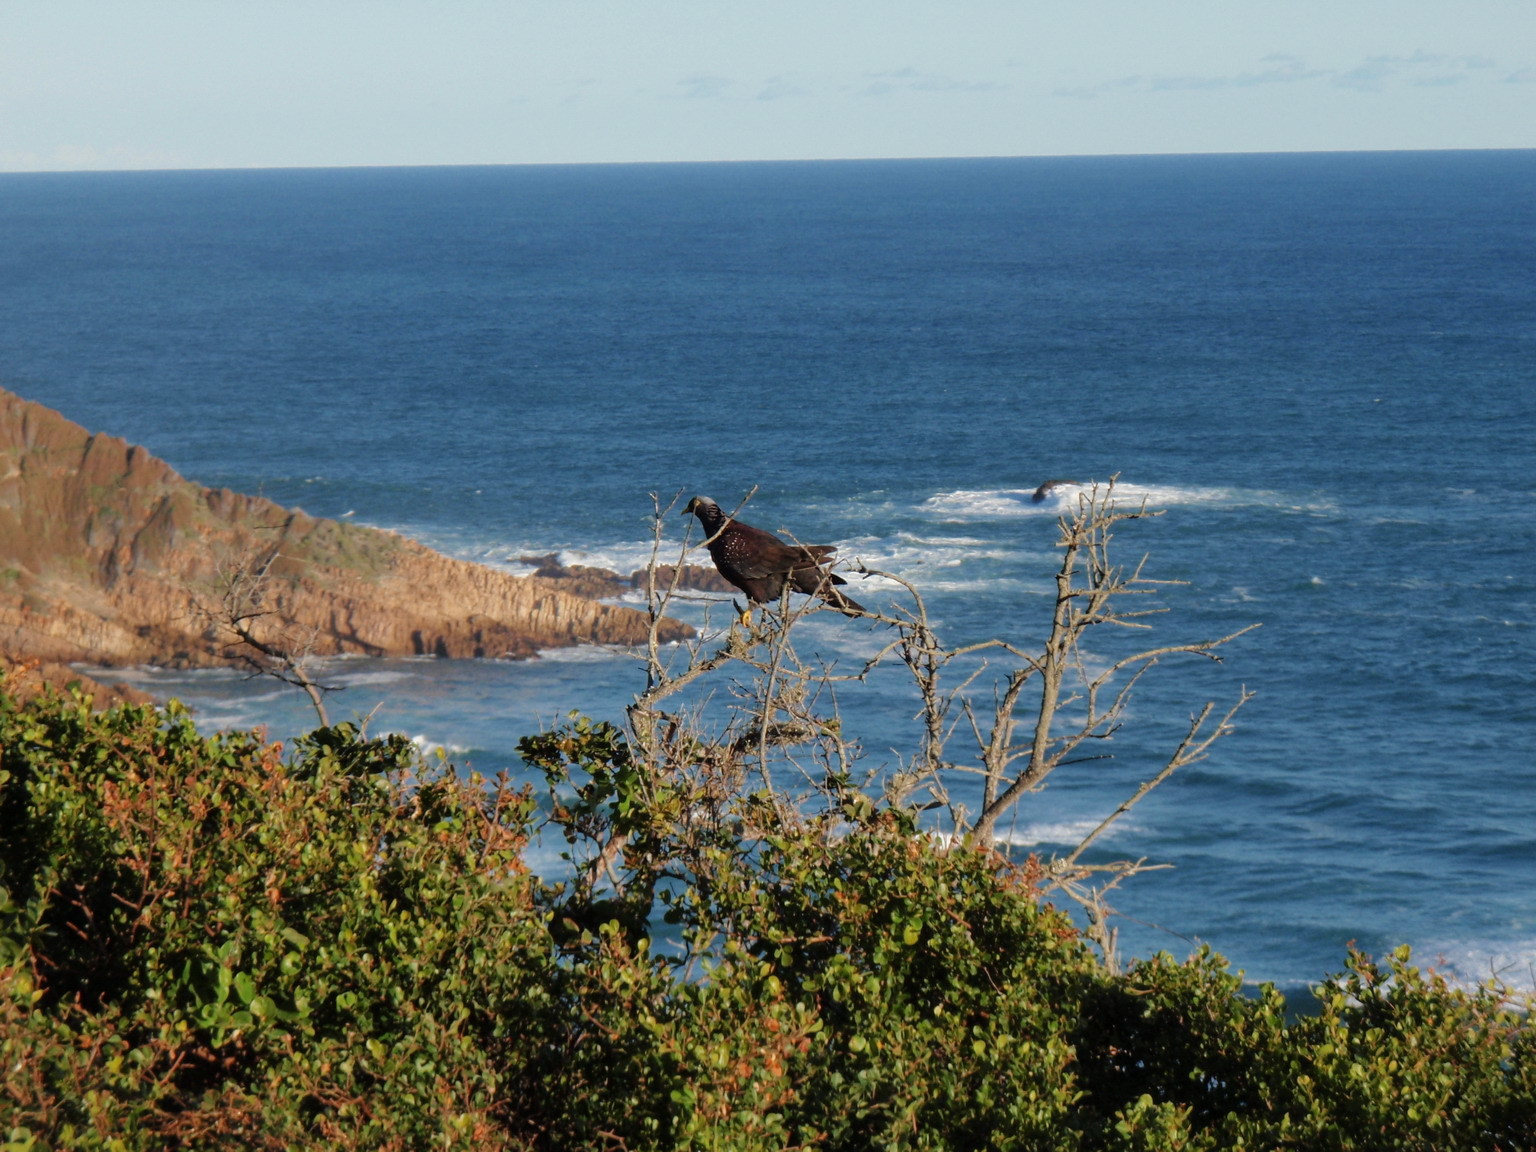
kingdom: Animalia
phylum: Chordata
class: Aves
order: Columbiformes
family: Columbidae
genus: Columba
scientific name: Columba arquatrix
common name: African olive pigeon
